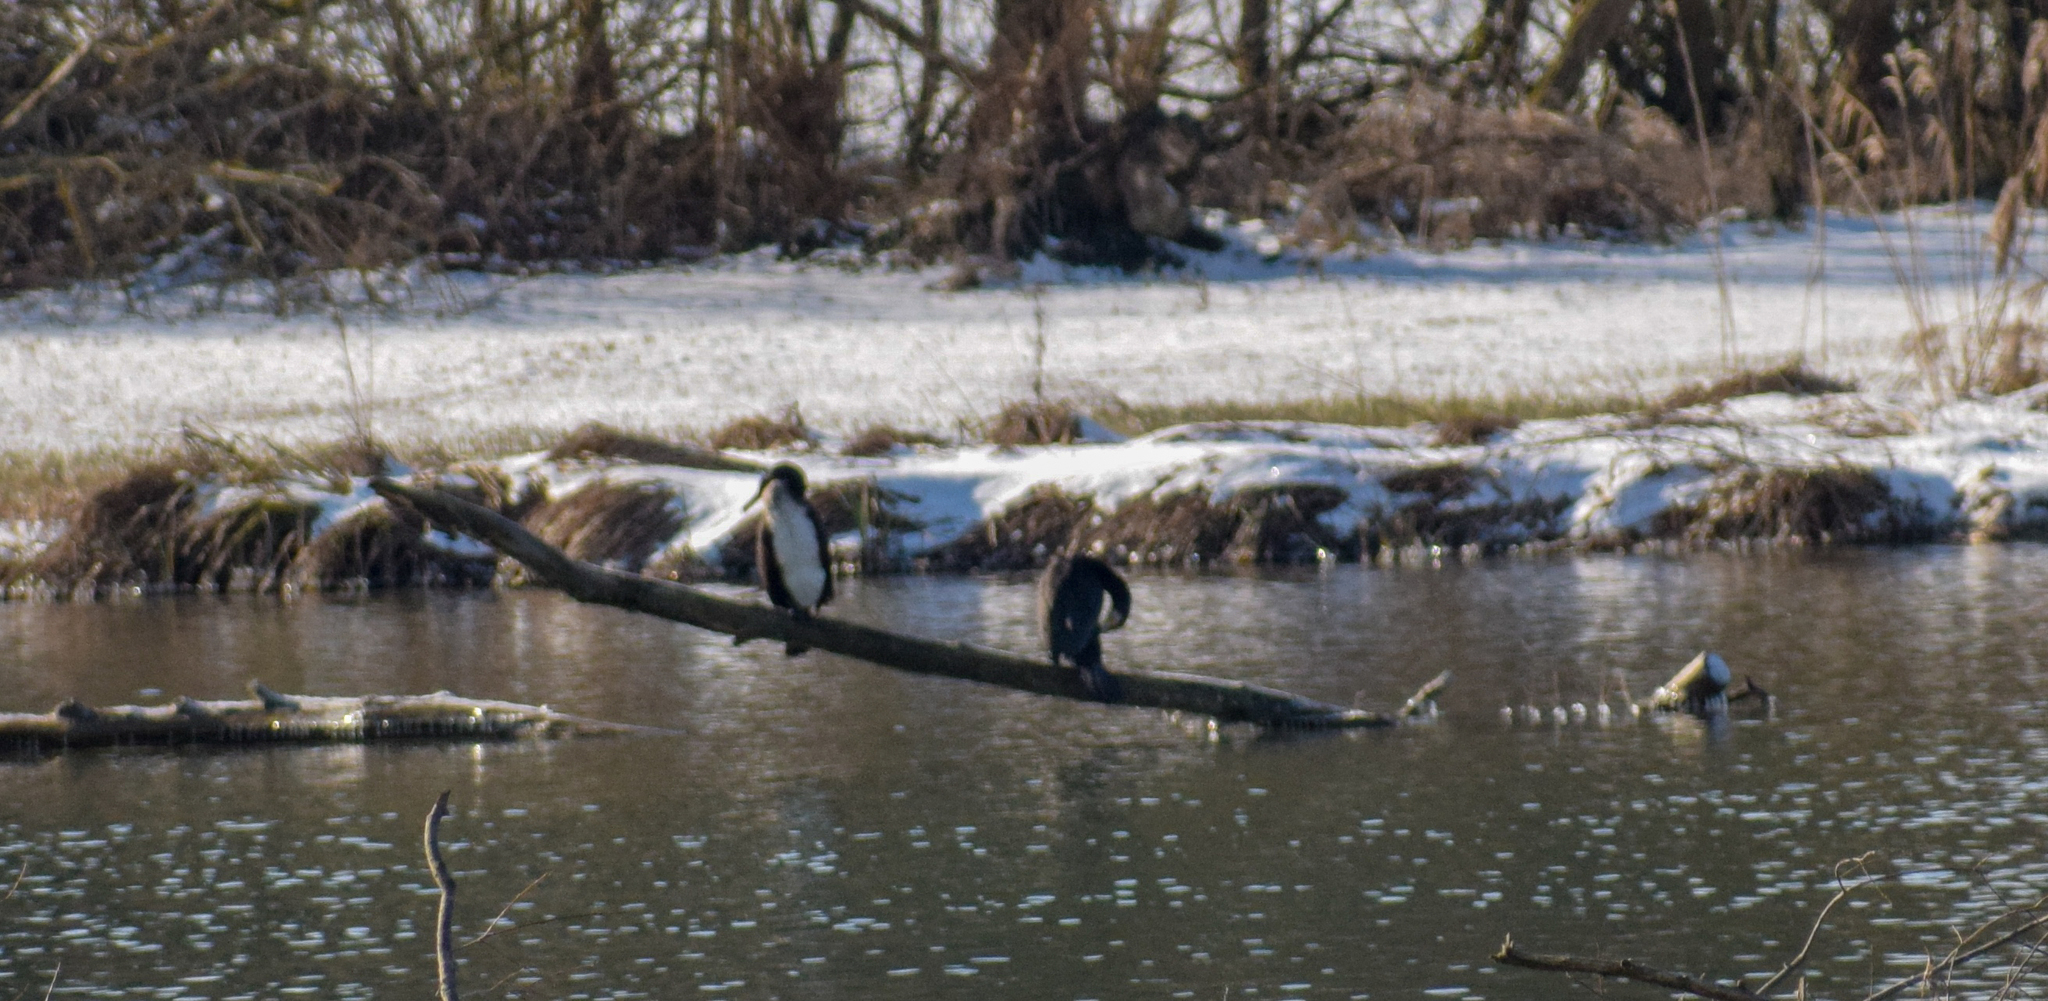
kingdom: Animalia
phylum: Chordata
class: Aves
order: Suliformes
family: Phalacrocoracidae
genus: Phalacrocorax
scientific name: Phalacrocorax carbo
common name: Great cormorant
